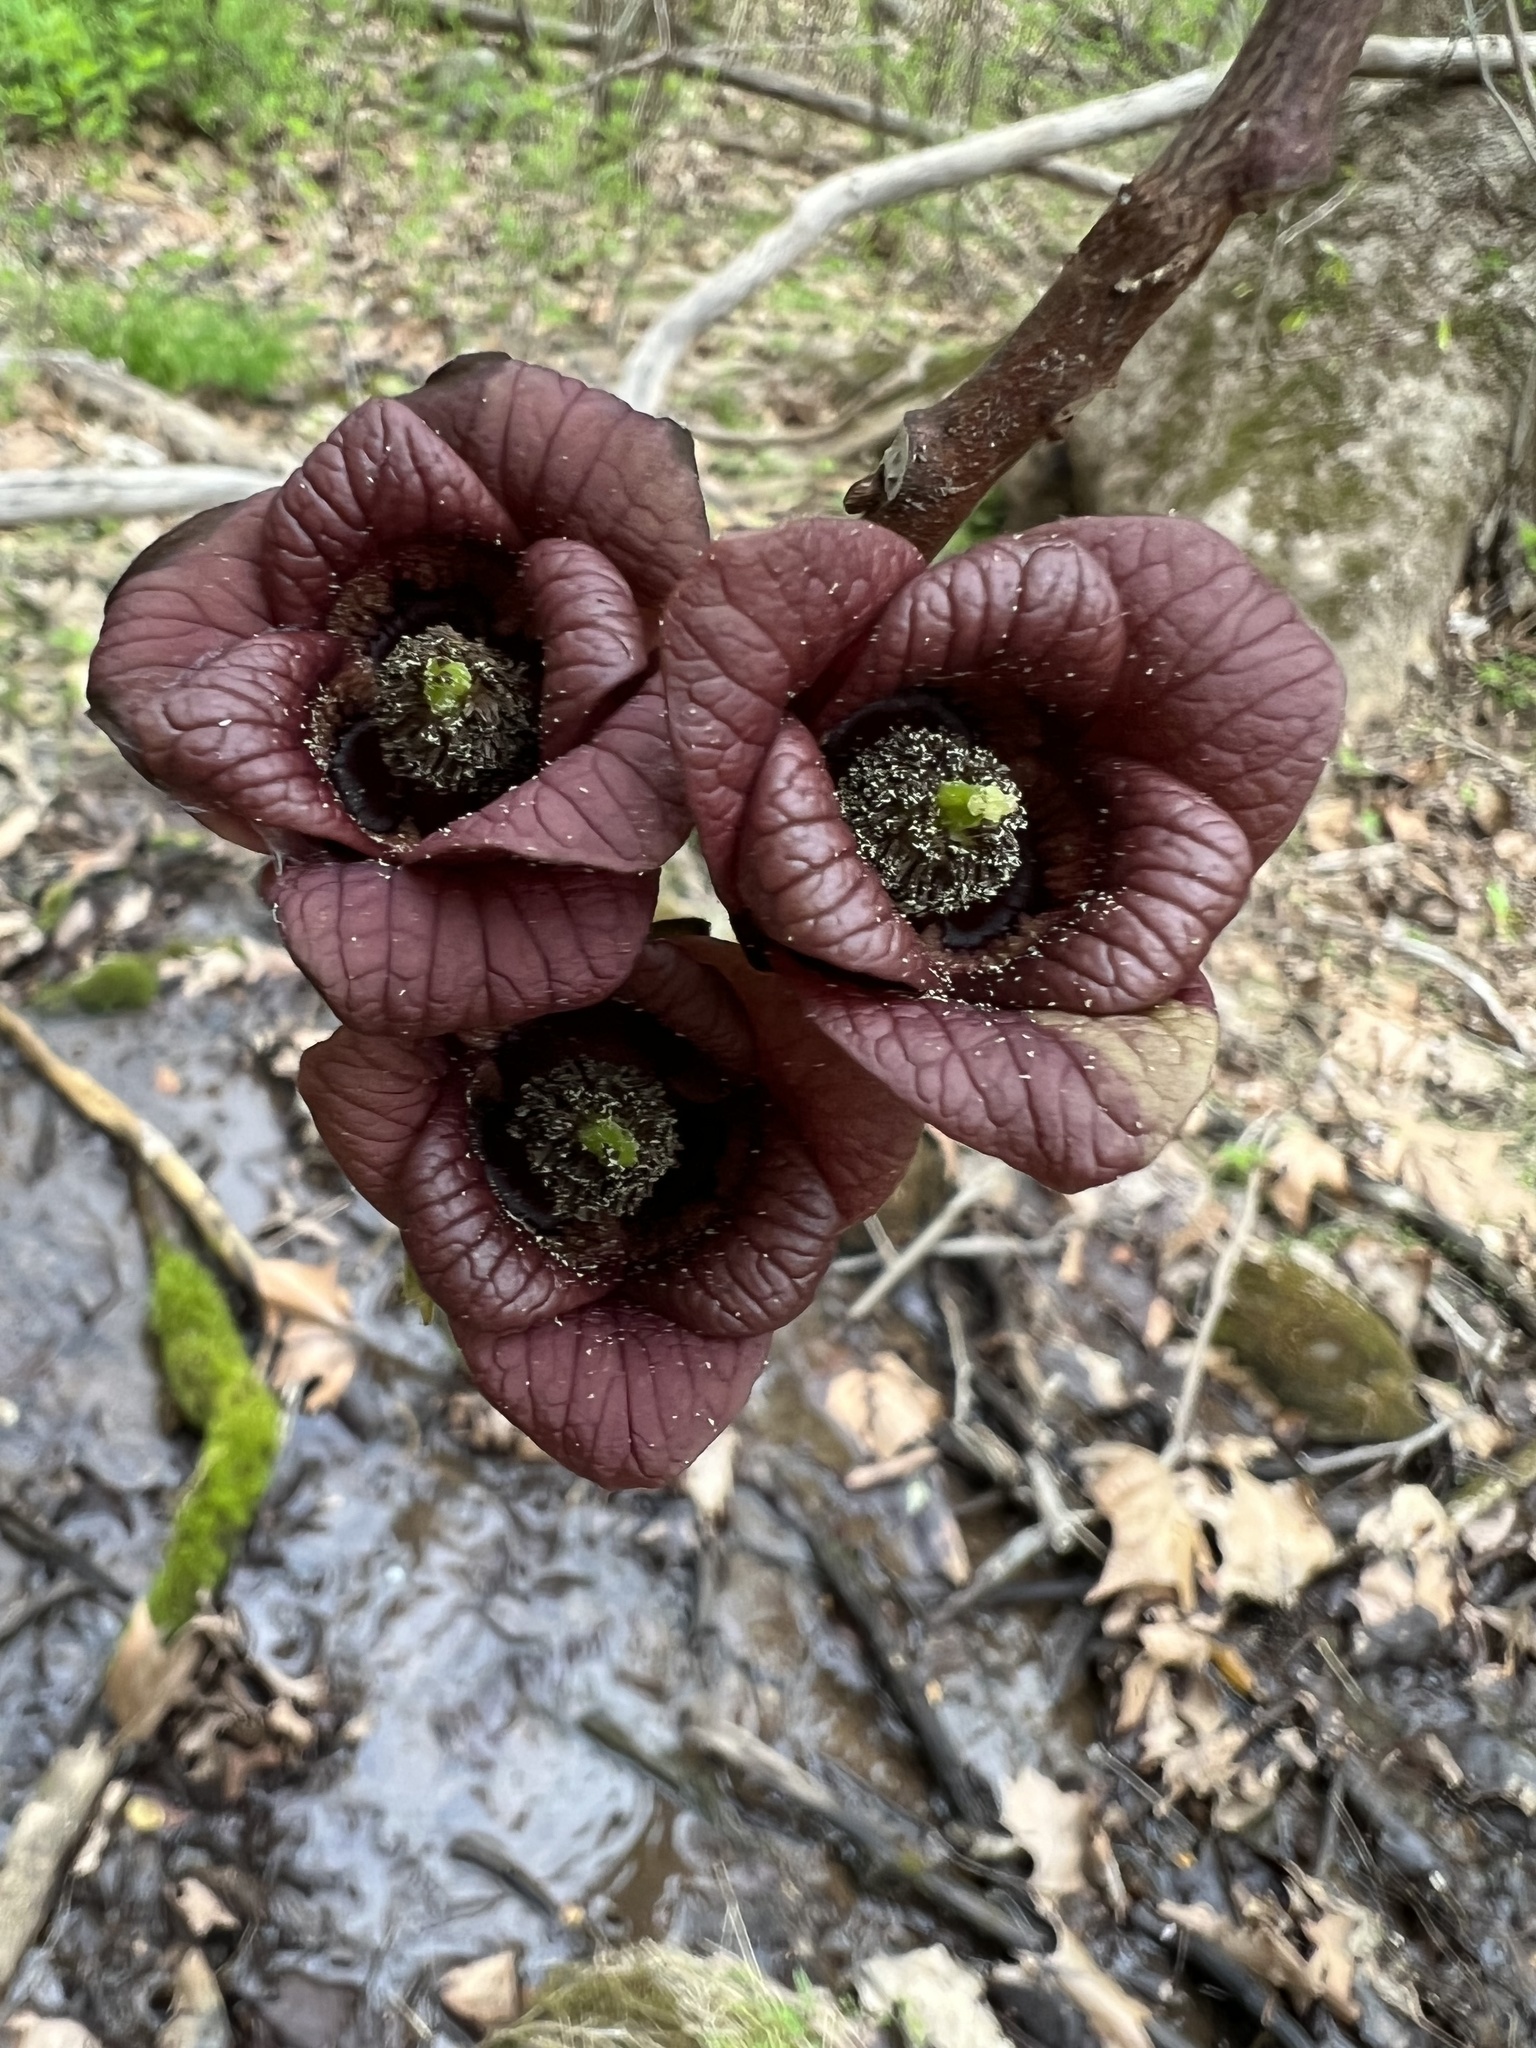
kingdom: Plantae
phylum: Tracheophyta
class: Magnoliopsida
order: Magnoliales
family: Annonaceae
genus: Asimina
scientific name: Asimina triloba
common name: Dog-banana
